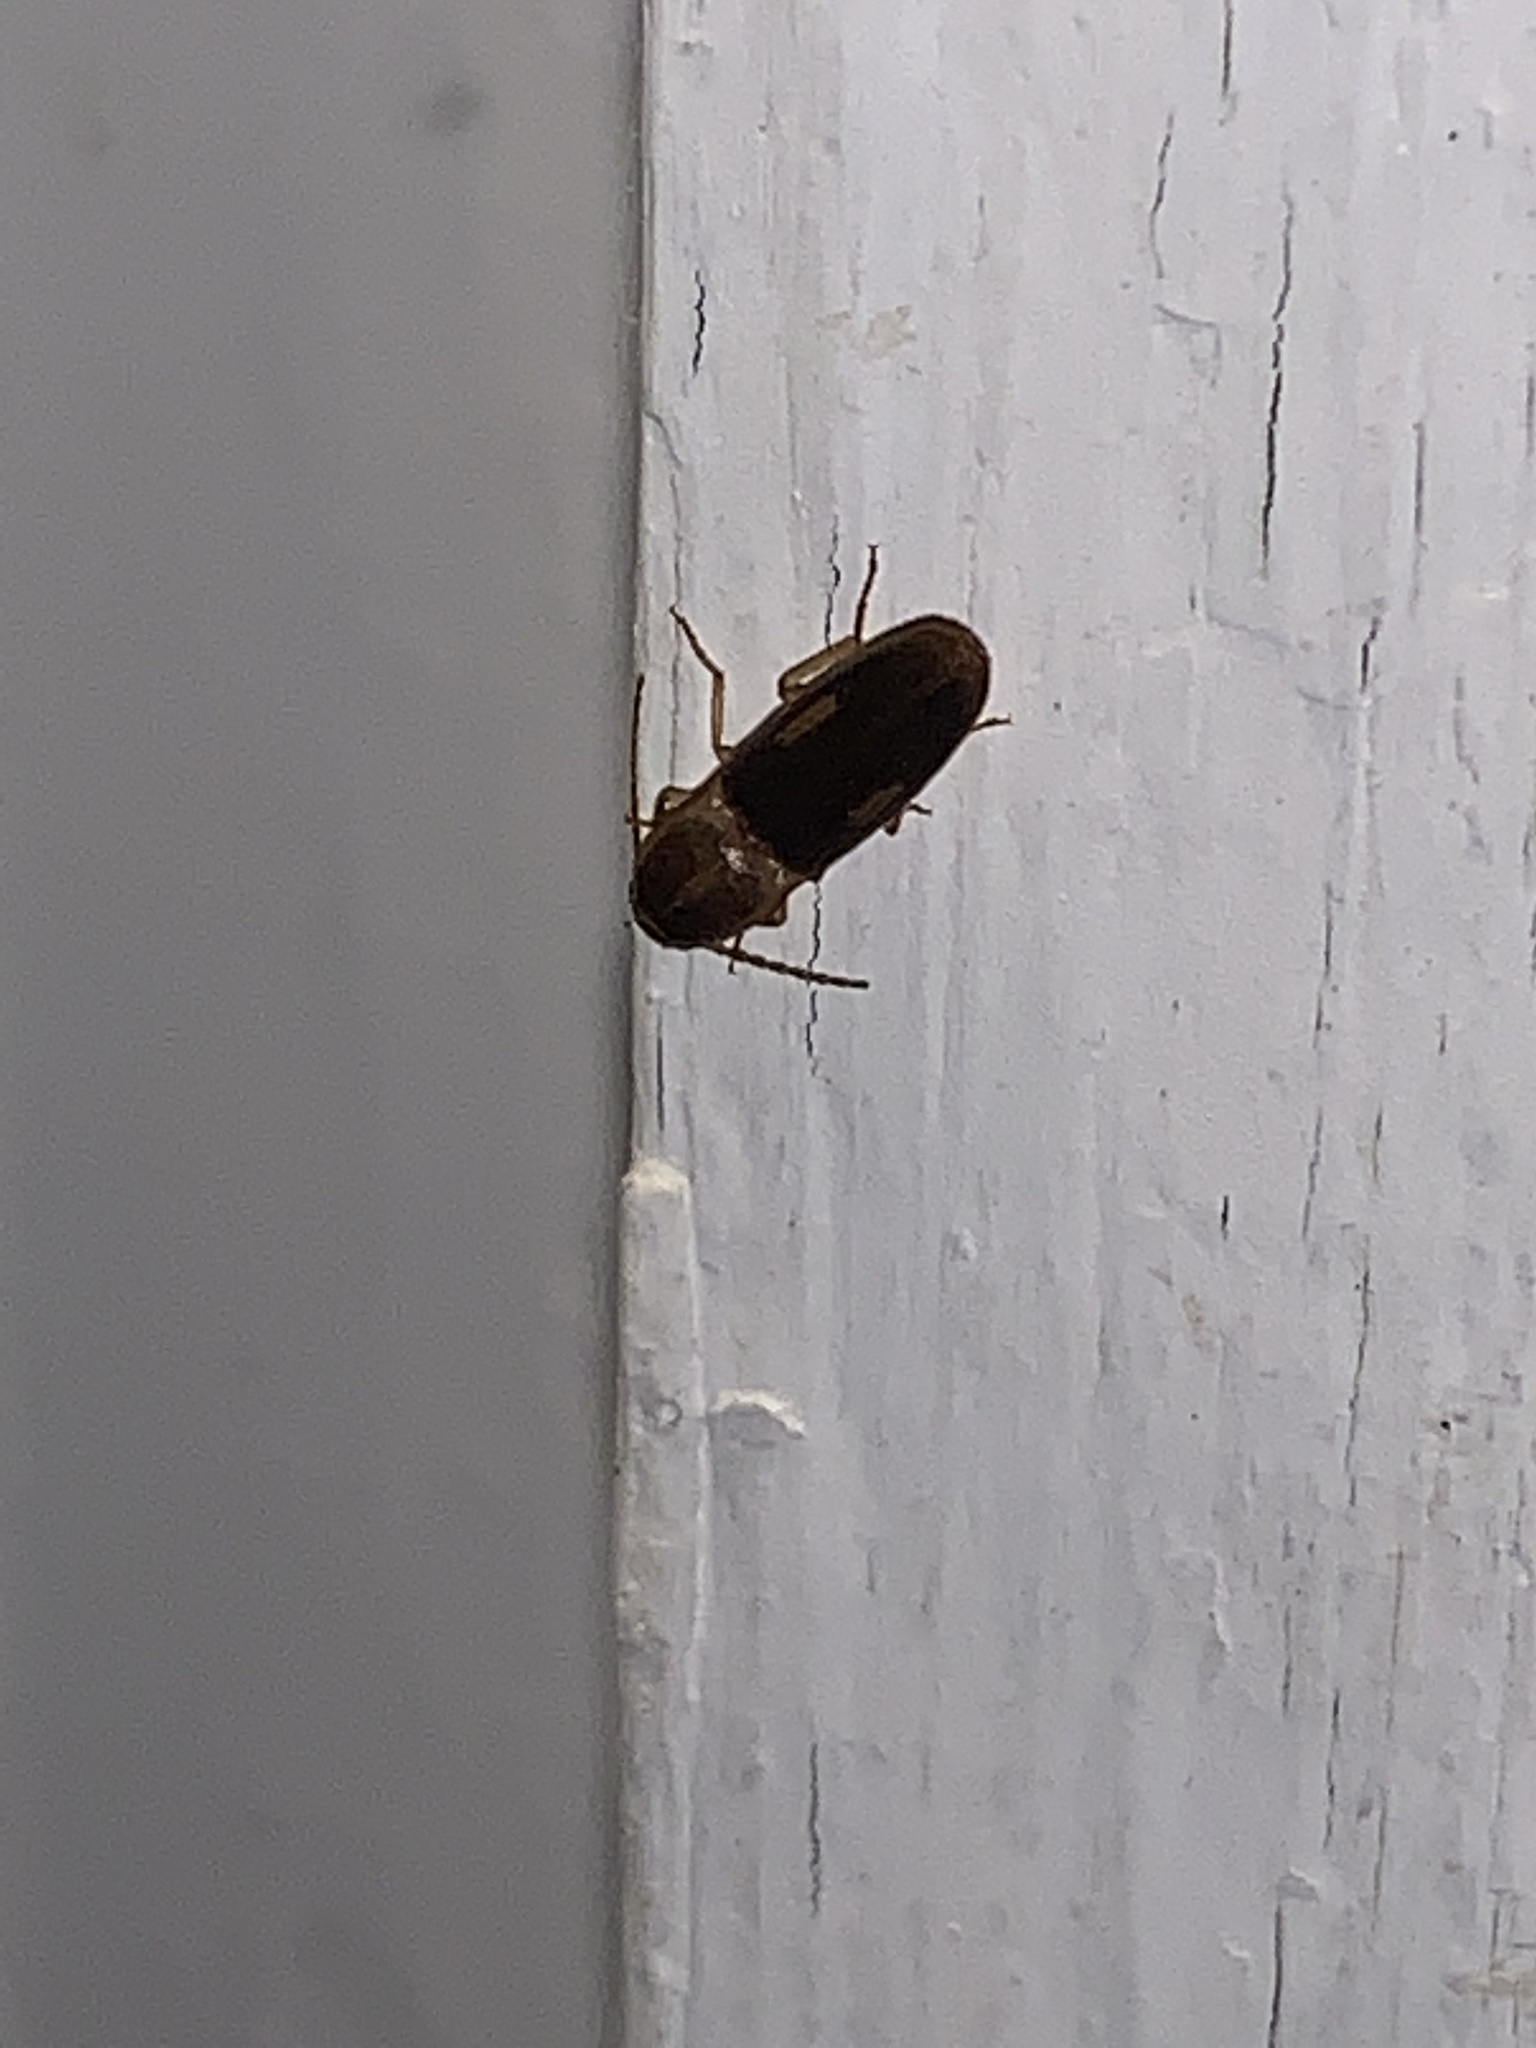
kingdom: Animalia
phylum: Arthropoda
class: Insecta
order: Coleoptera
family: Elateridae
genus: Monocrepidius
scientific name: Monocrepidius
